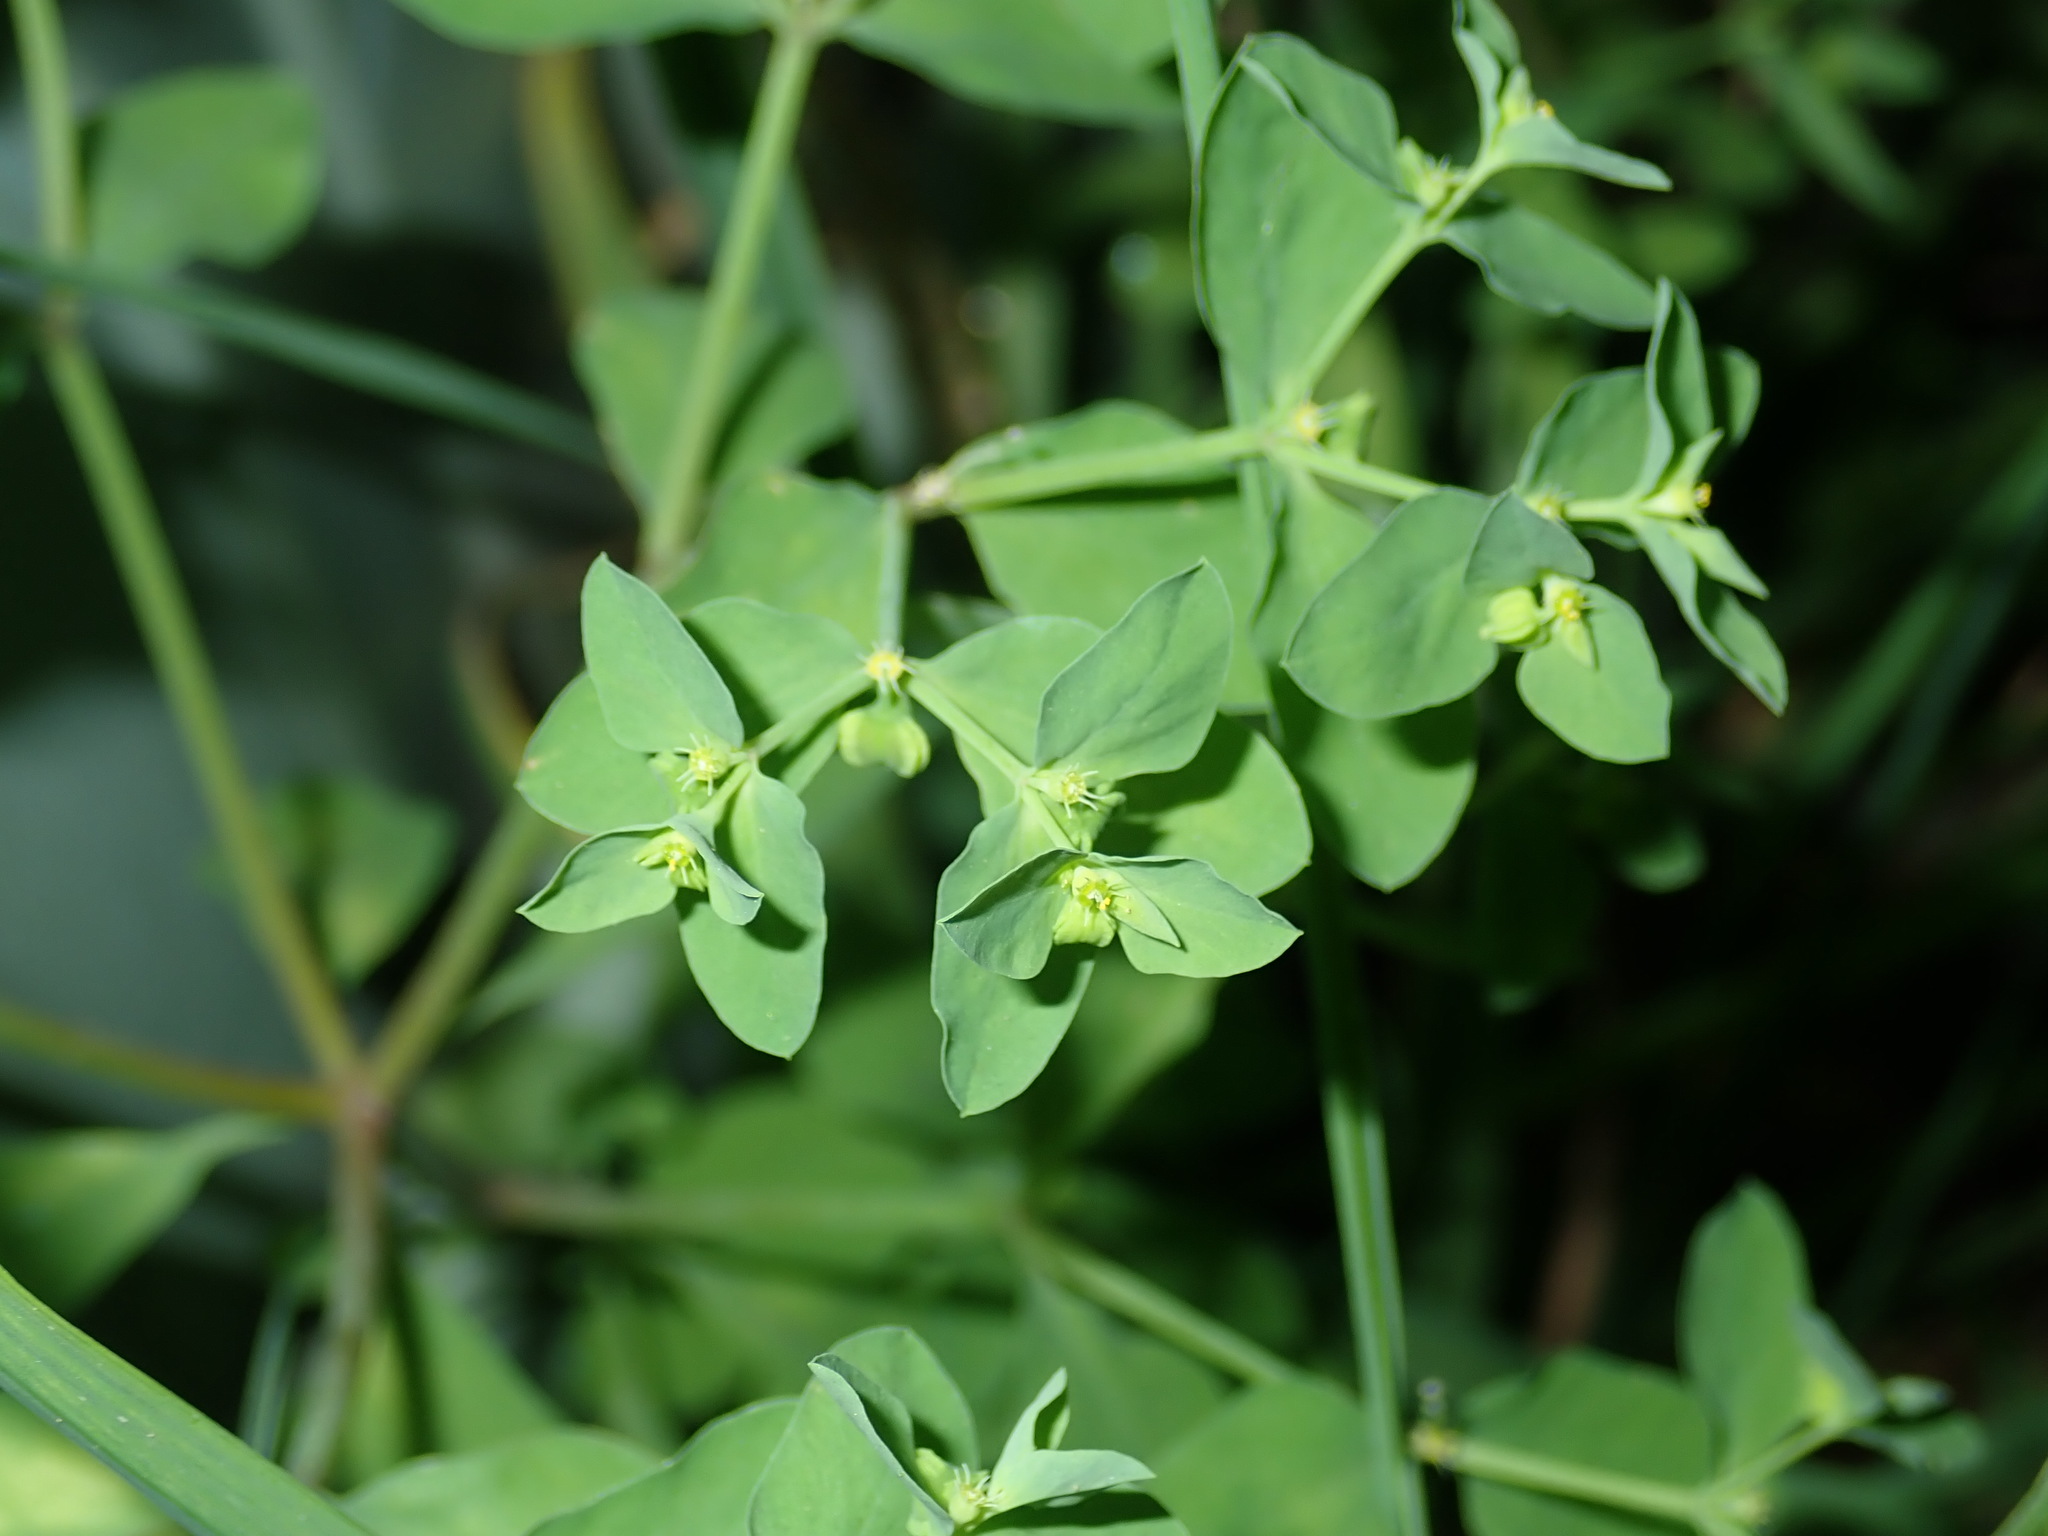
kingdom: Plantae
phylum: Tracheophyta
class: Magnoliopsida
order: Malpighiales
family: Euphorbiaceae
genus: Euphorbia
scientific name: Euphorbia peplus
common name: Petty spurge
